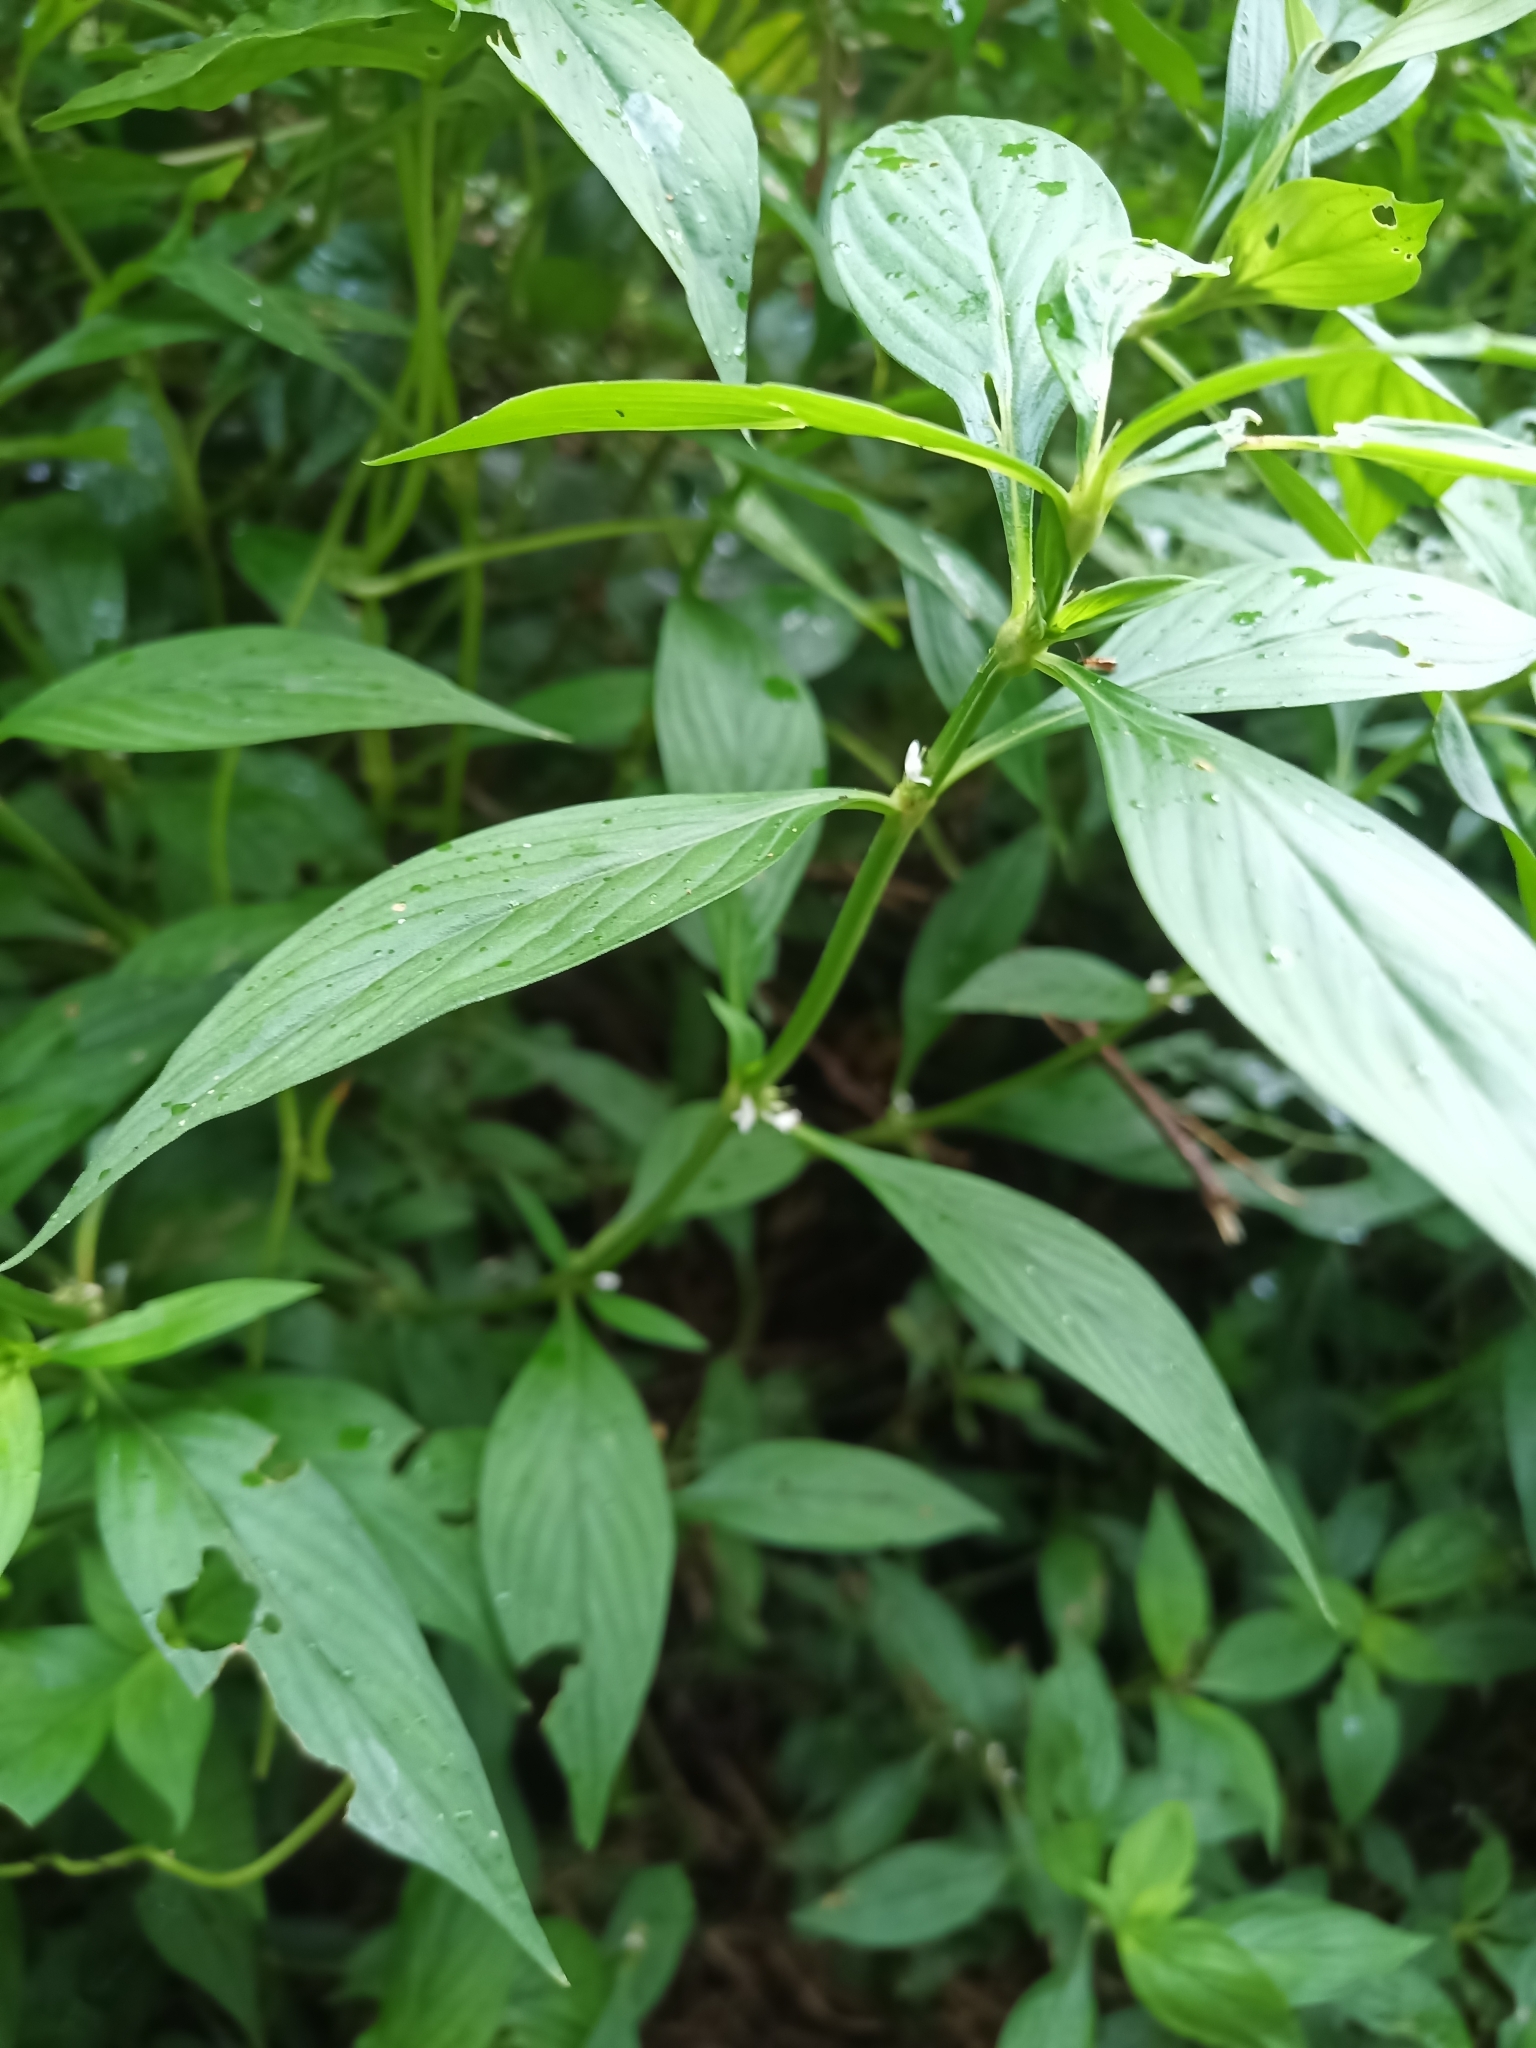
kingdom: Plantae
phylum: Tracheophyta
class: Magnoliopsida
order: Gentianales
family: Rubiaceae
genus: Spermacoce
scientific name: Spermacoce ocymifolia
